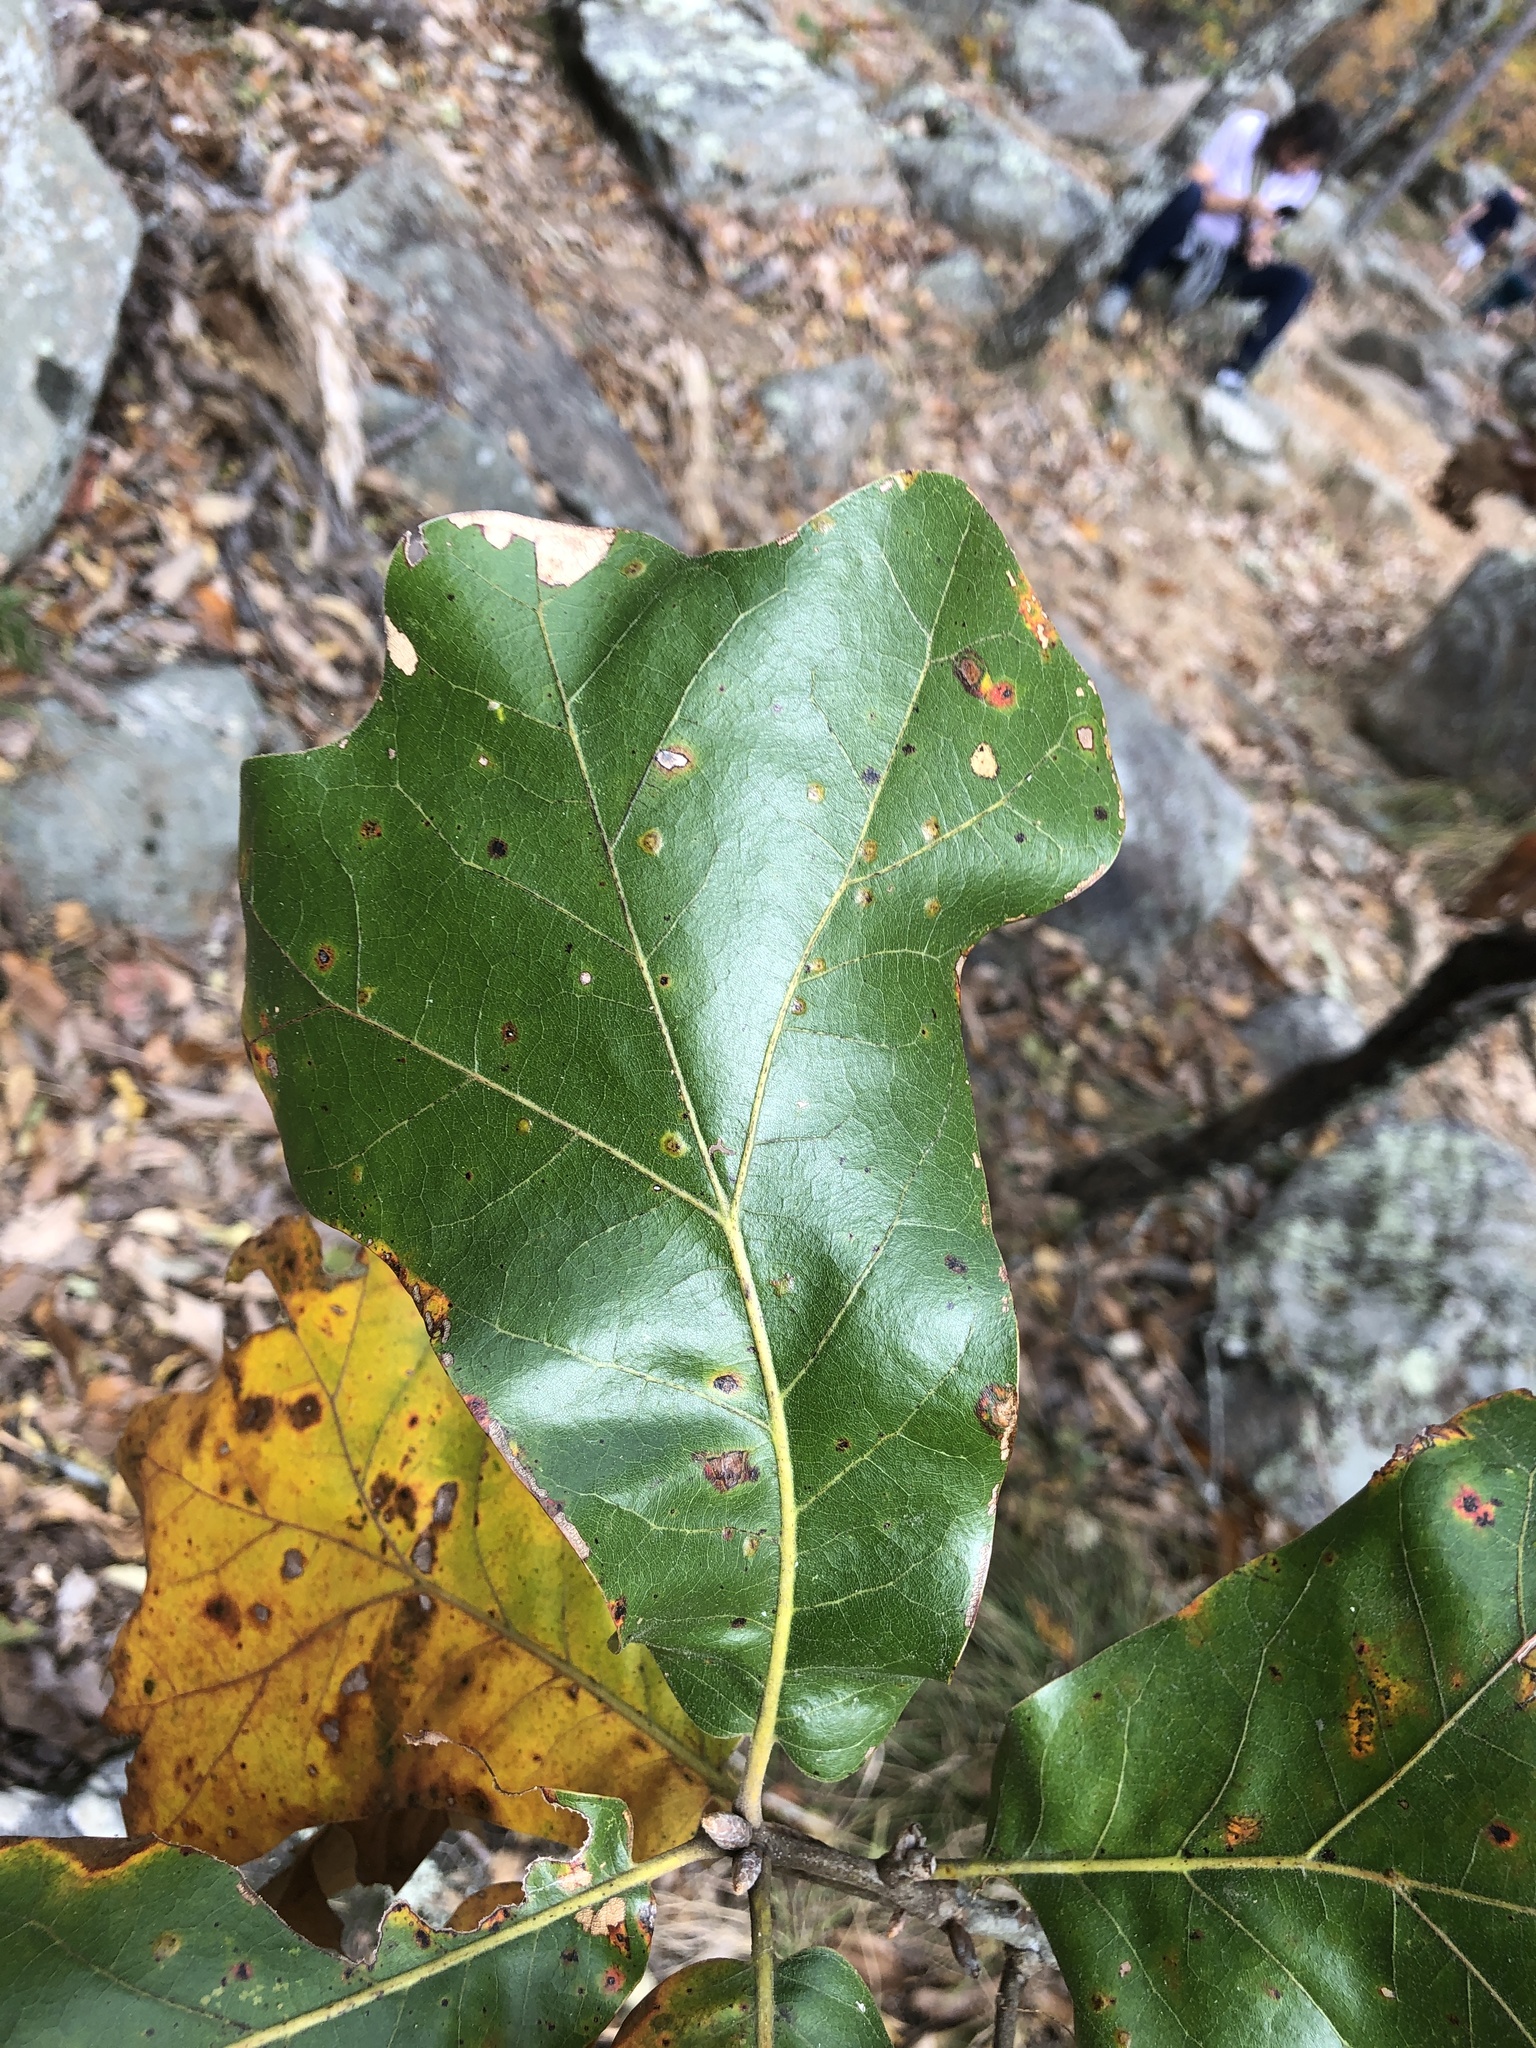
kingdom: Plantae
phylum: Tracheophyta
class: Magnoliopsida
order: Fagales
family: Fagaceae
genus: Quercus
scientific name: Quercus marilandica
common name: Blackjack oak
